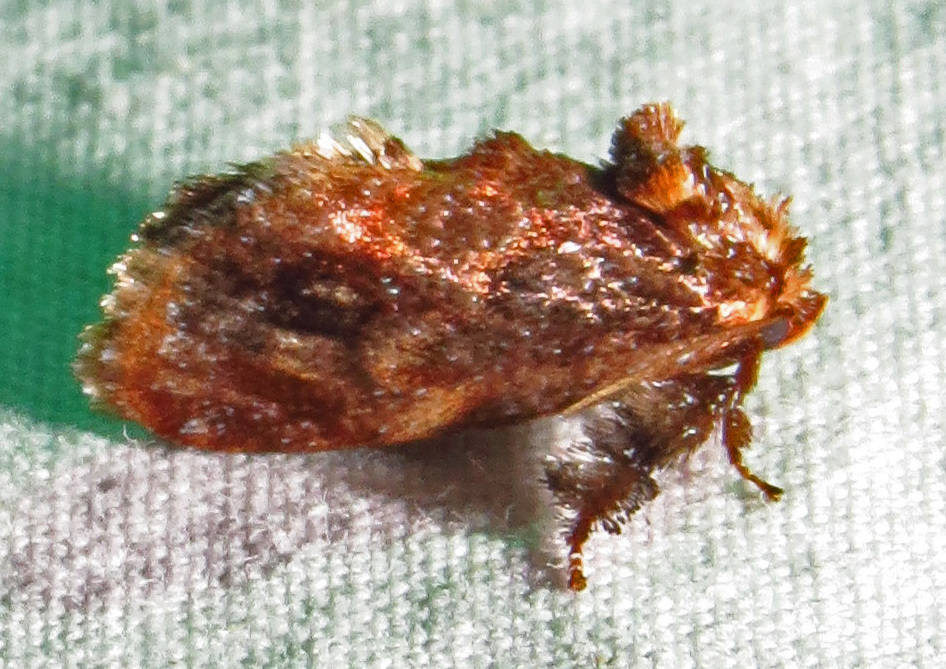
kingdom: Animalia
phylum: Arthropoda
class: Insecta
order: Lepidoptera
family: Limacodidae
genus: Isochaetes
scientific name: Isochaetes beutenmuelleri
